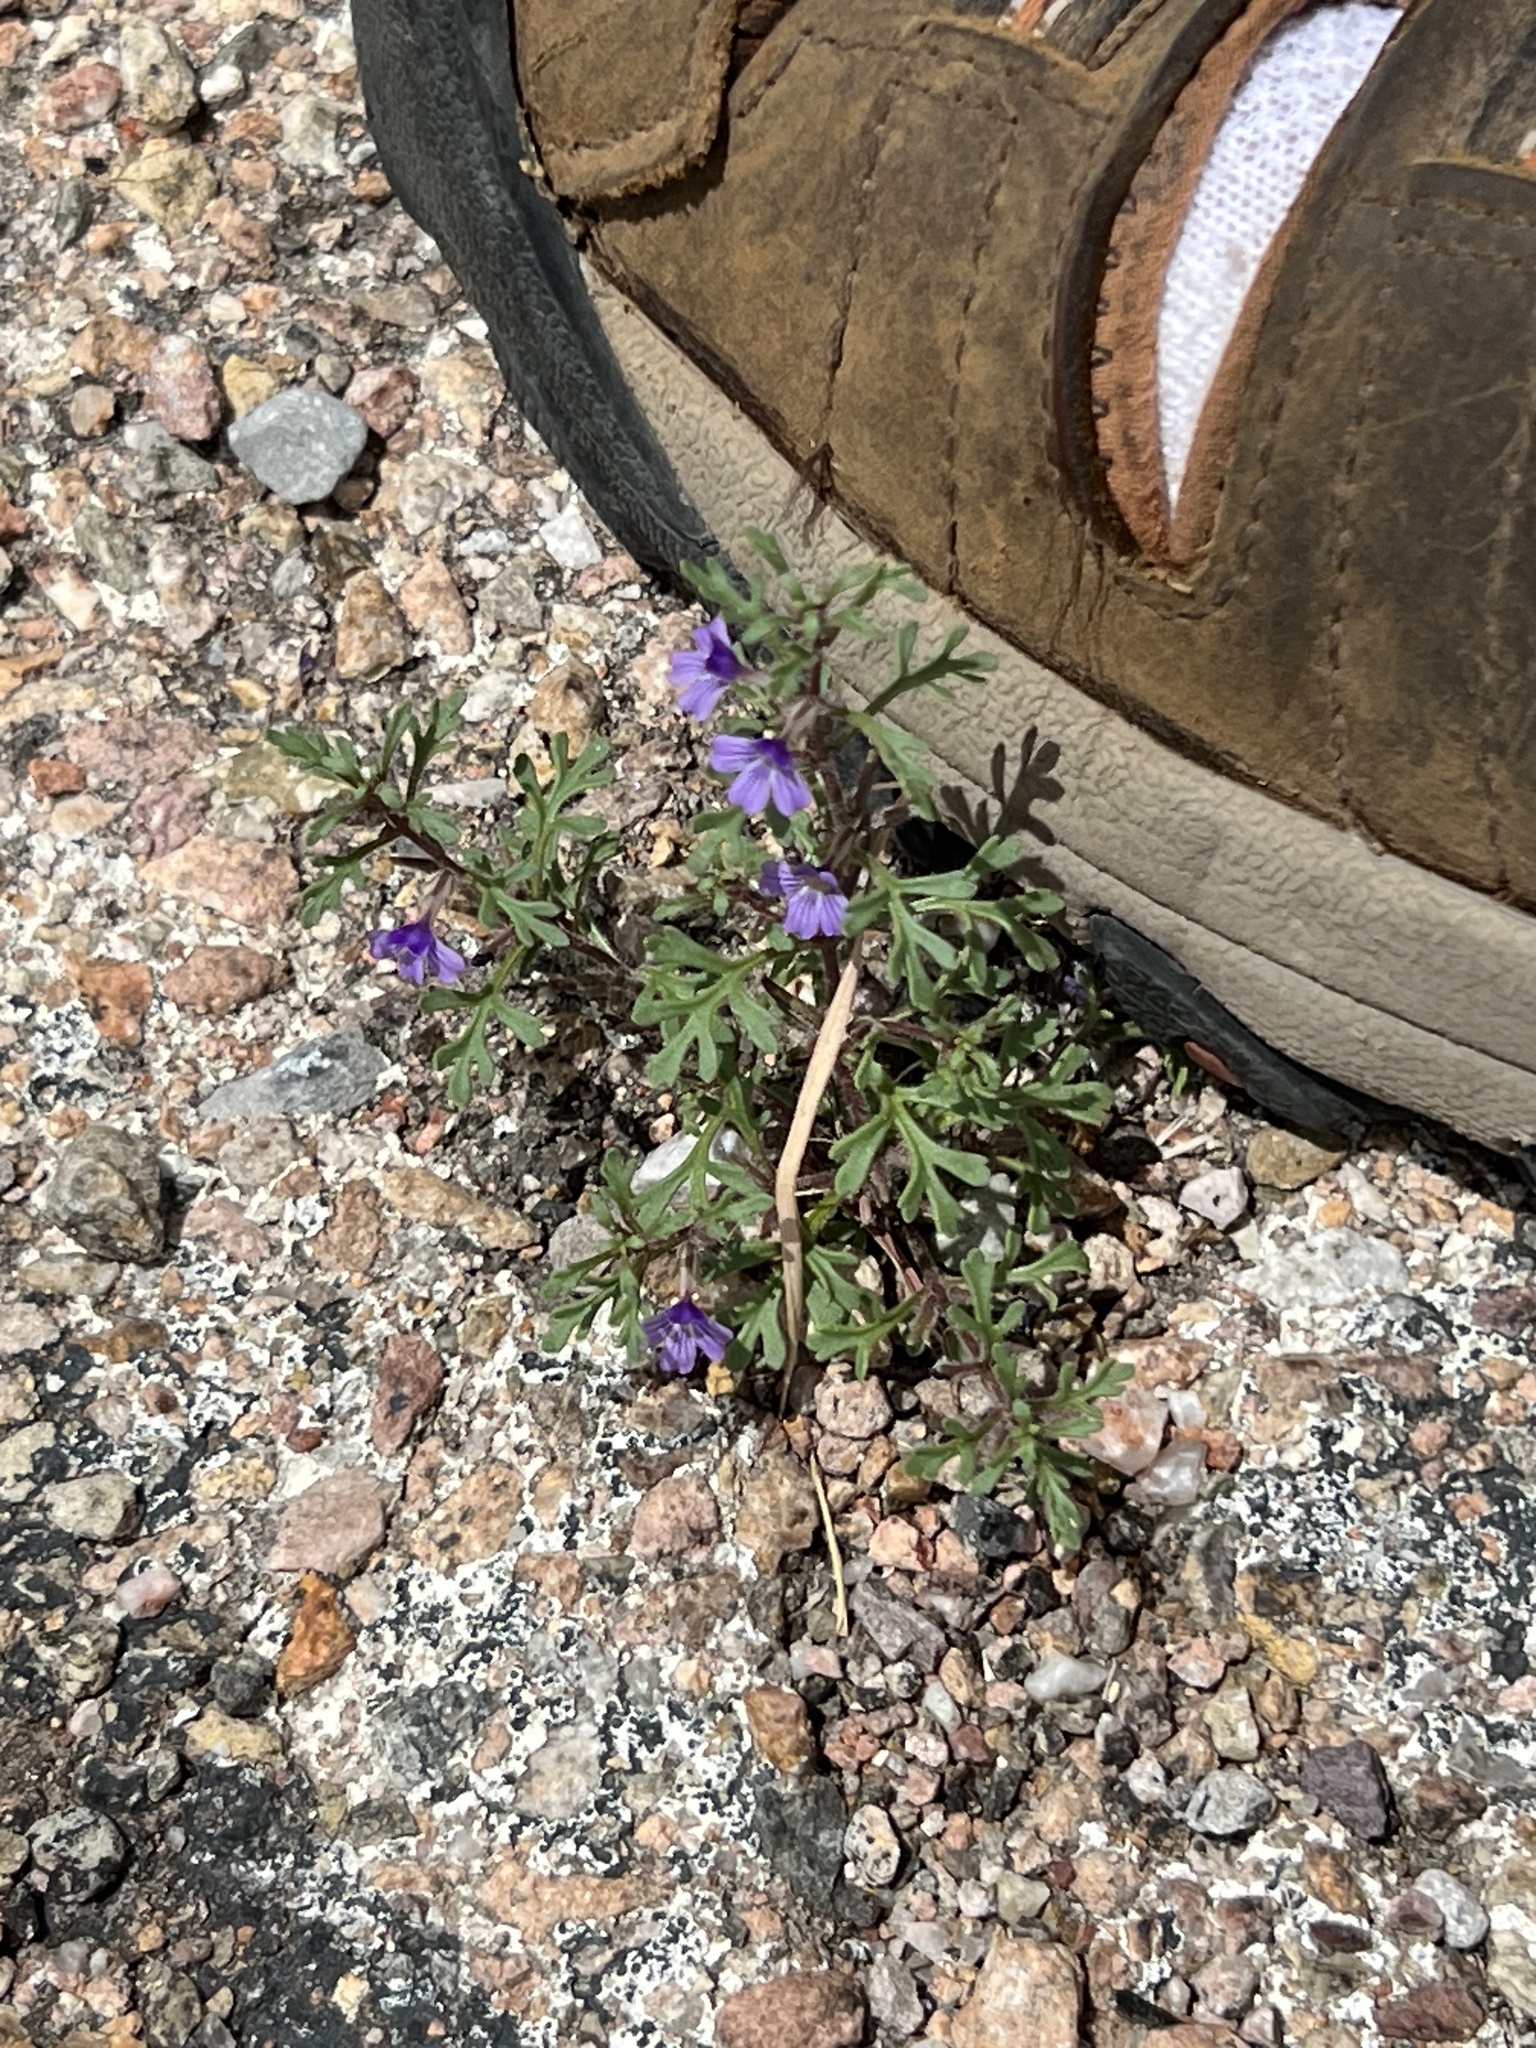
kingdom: Plantae
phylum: Tracheophyta
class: Magnoliopsida
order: Lamiales
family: Verbenaceae
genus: Verbena
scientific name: Verbena chiricahensis
